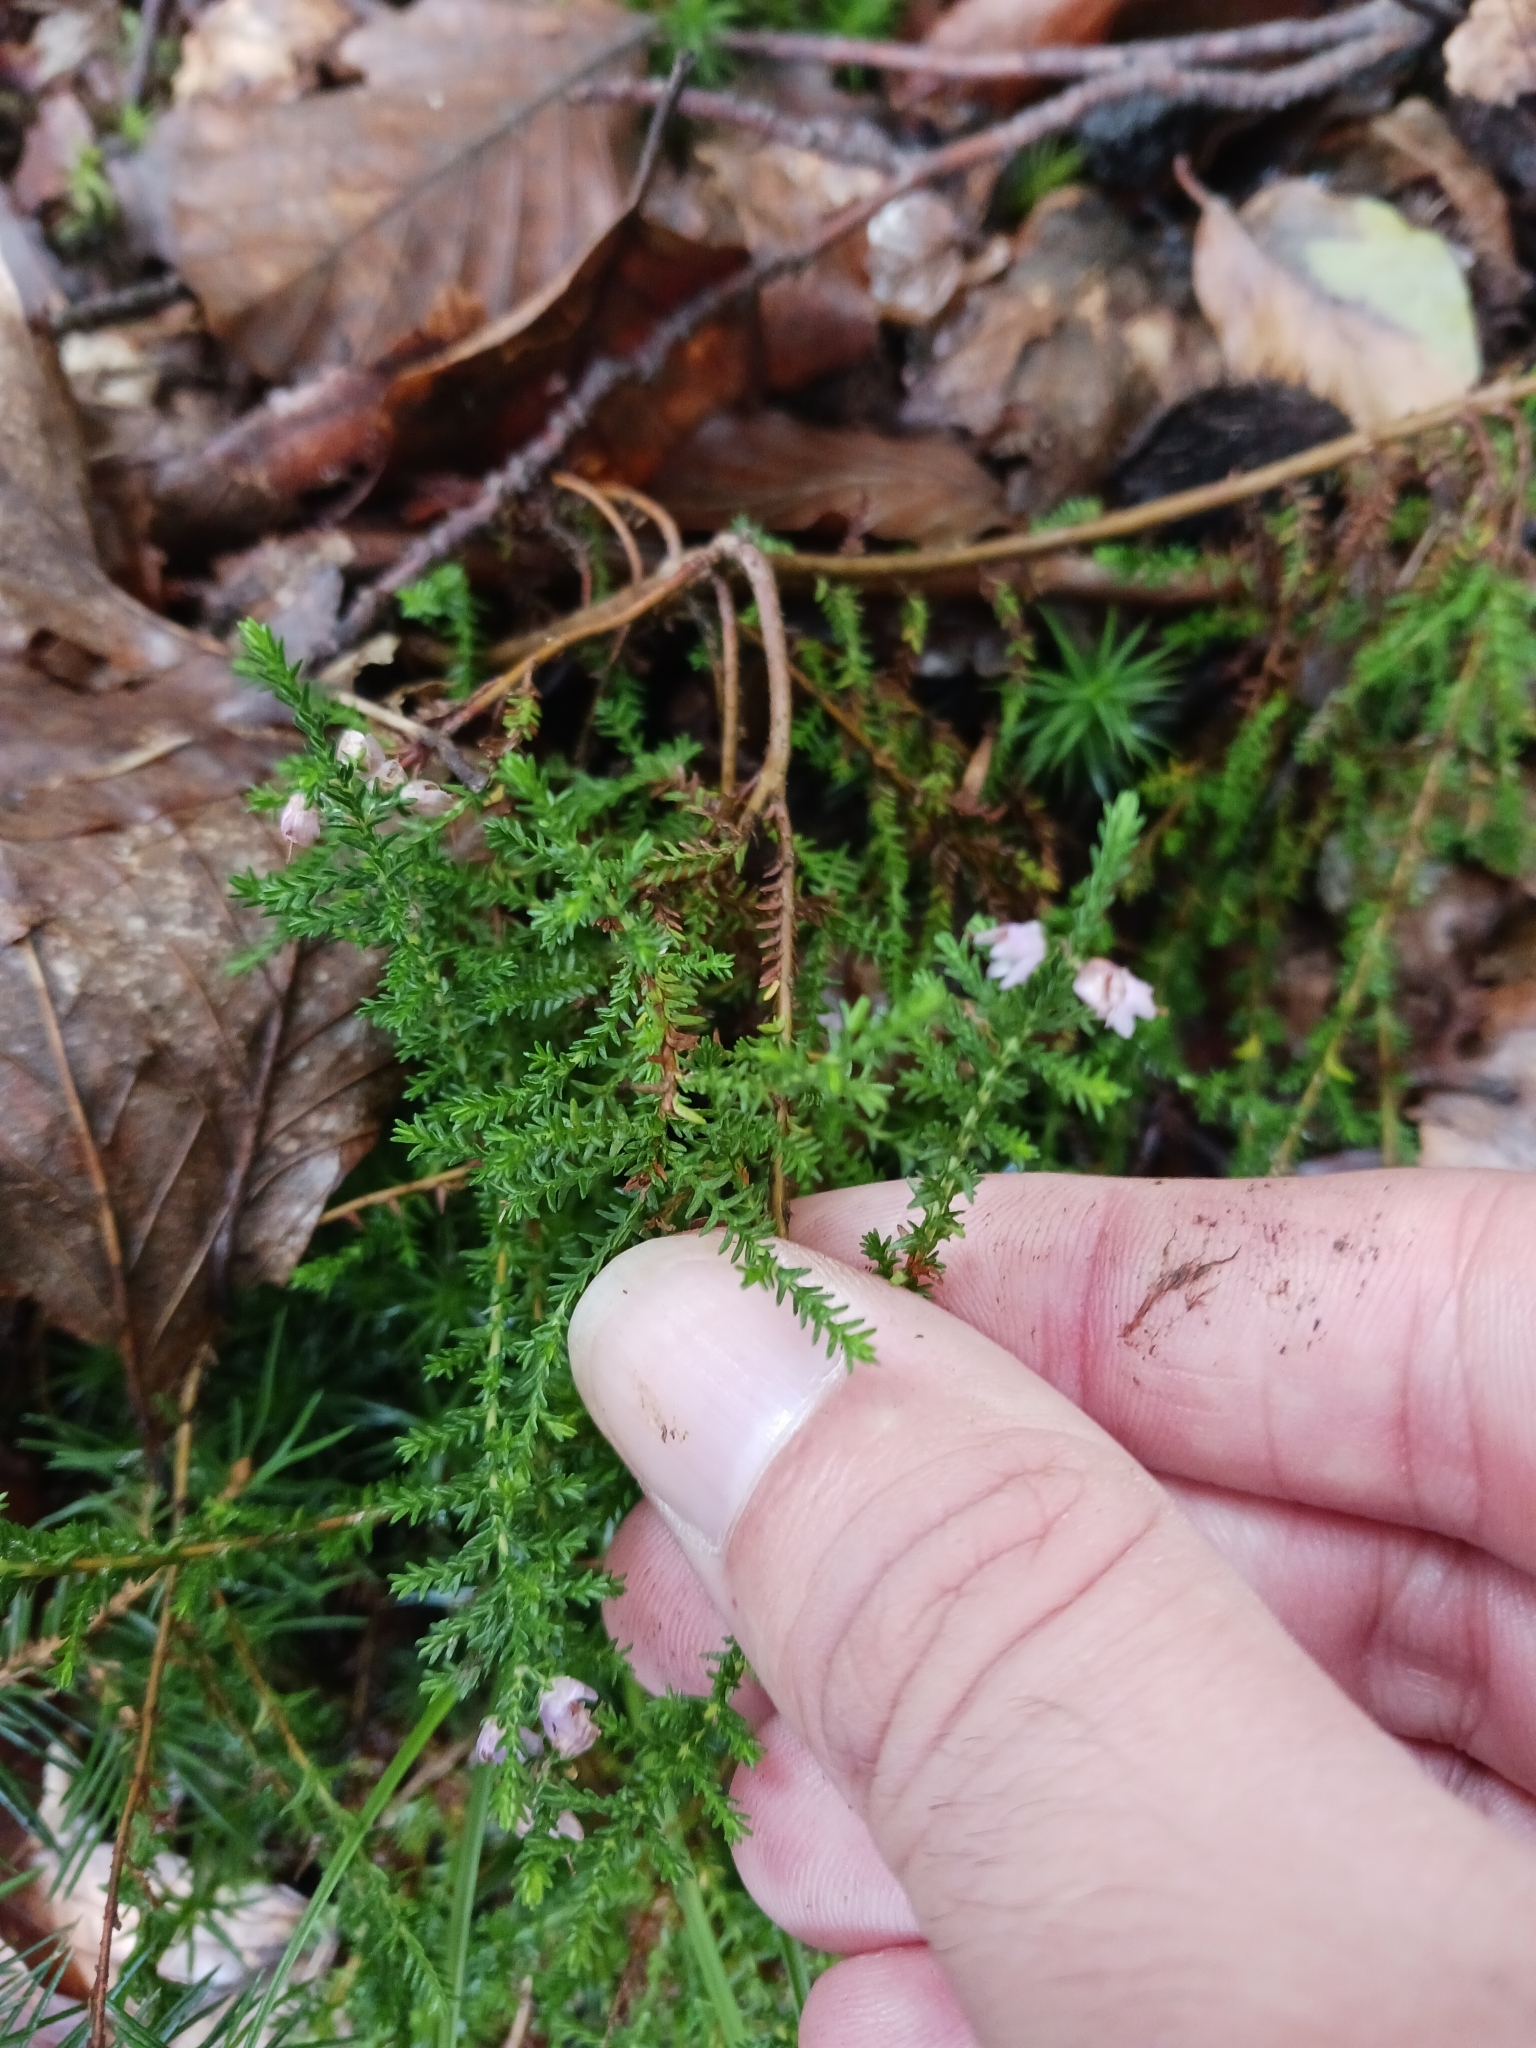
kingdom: Plantae
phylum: Tracheophyta
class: Magnoliopsida
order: Ericales
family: Ericaceae
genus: Calluna
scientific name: Calluna vulgaris
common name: Heather
